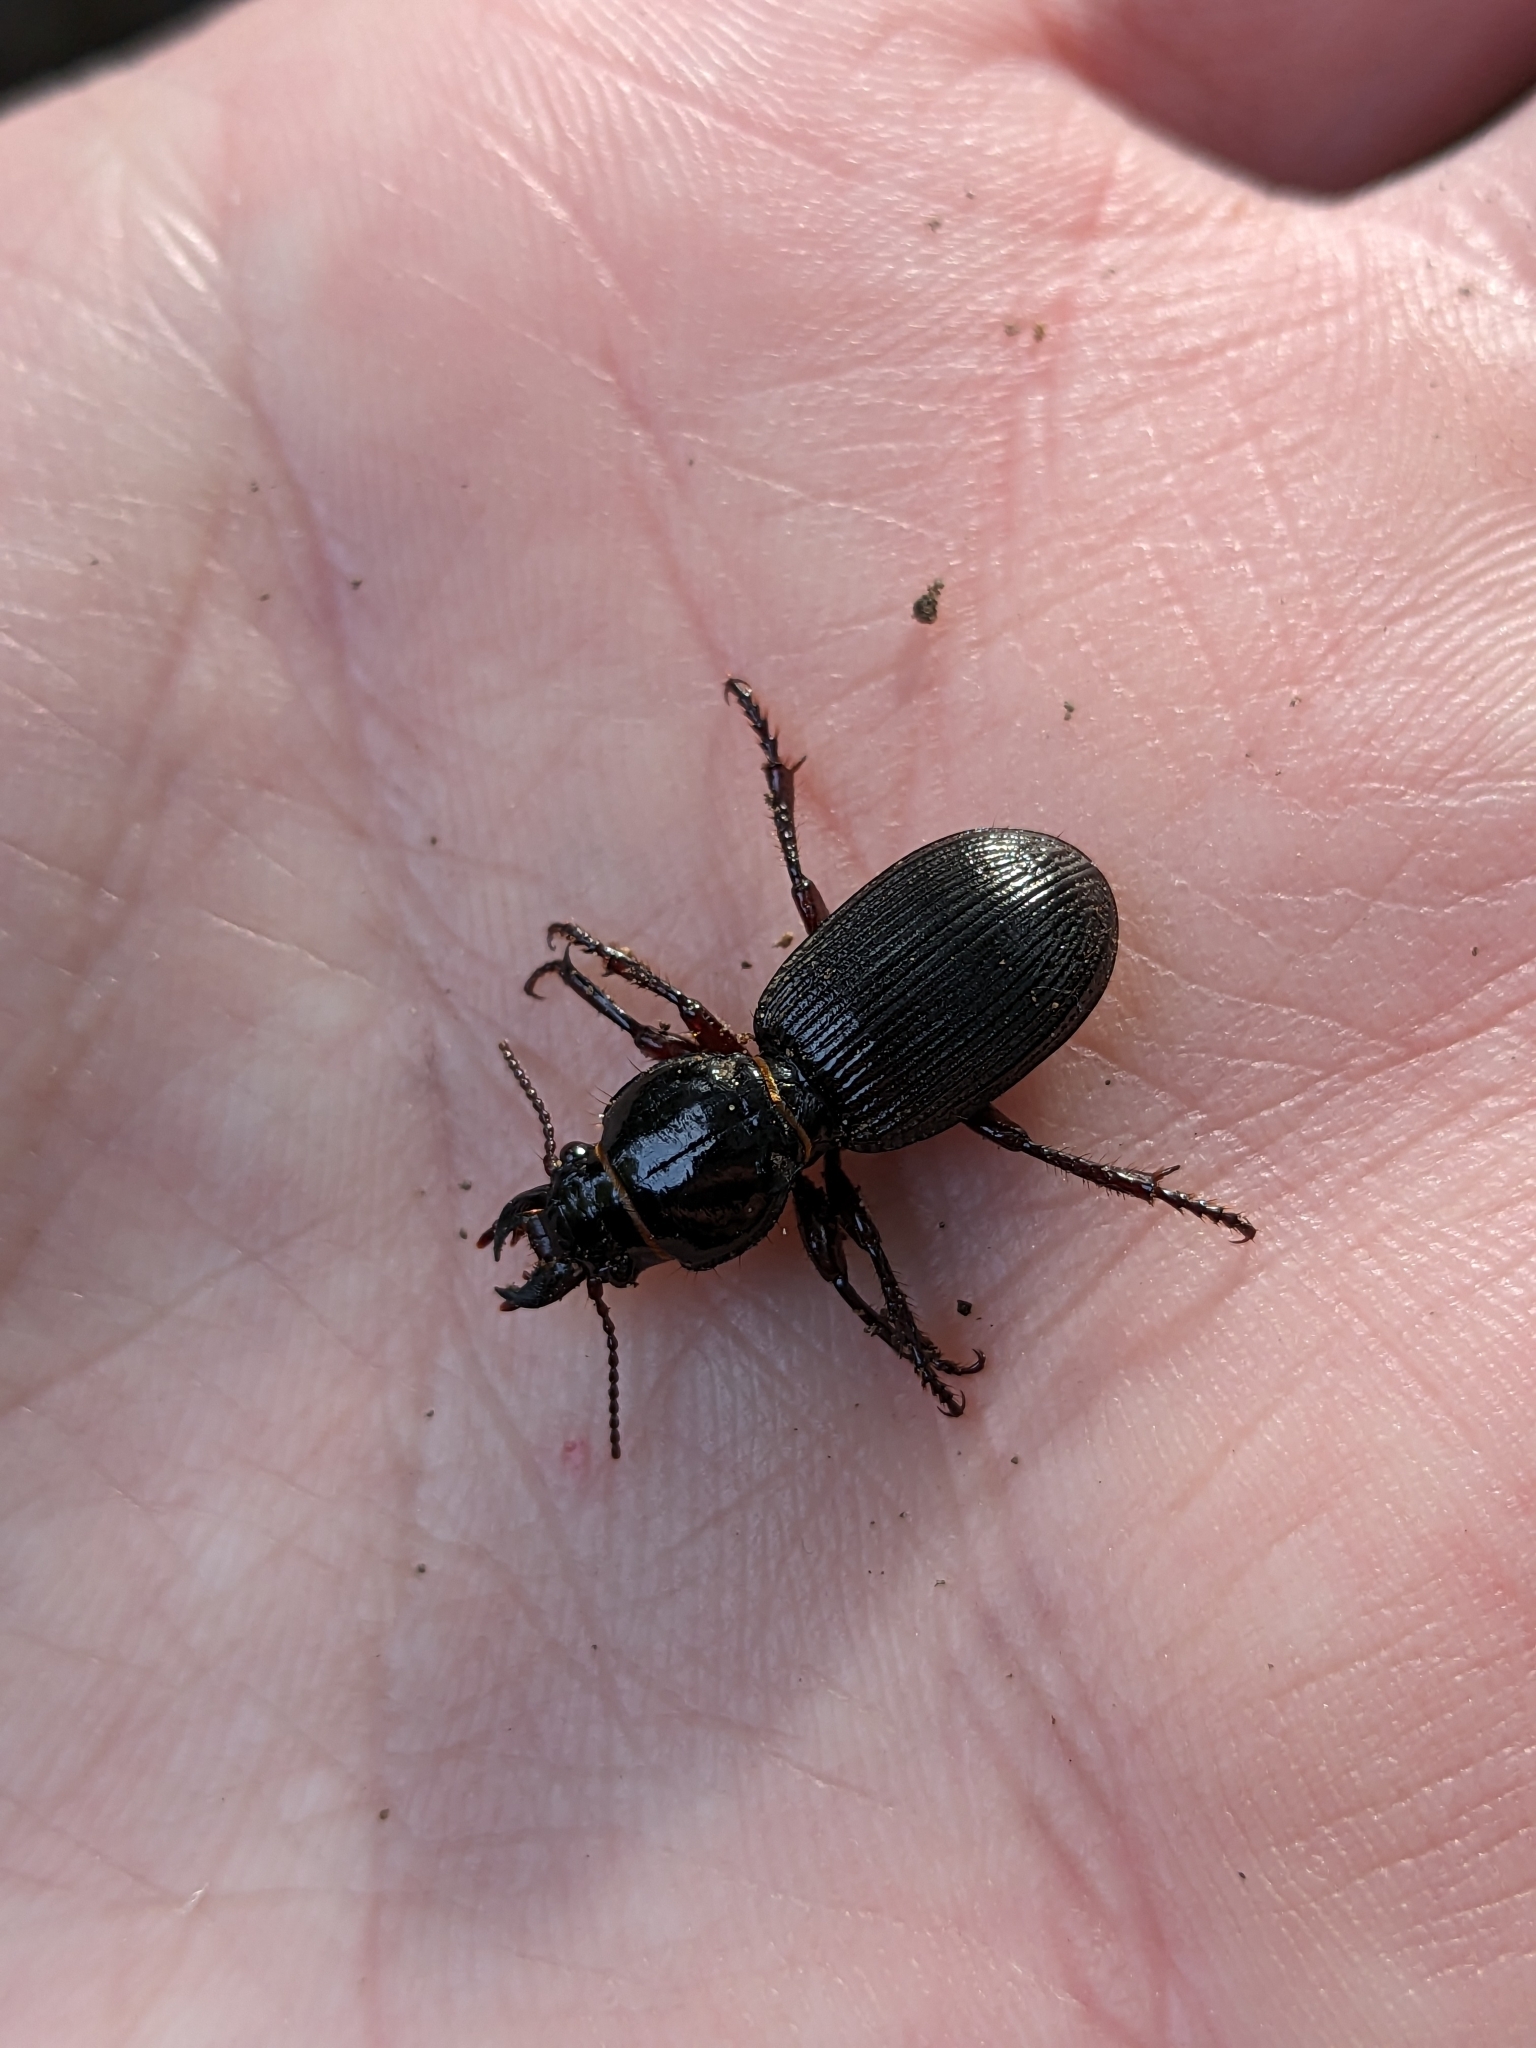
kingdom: Animalia
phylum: Arthropoda
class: Insecta
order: Coleoptera
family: Carabidae
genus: Mecodema
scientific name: Mecodema moniliferum
